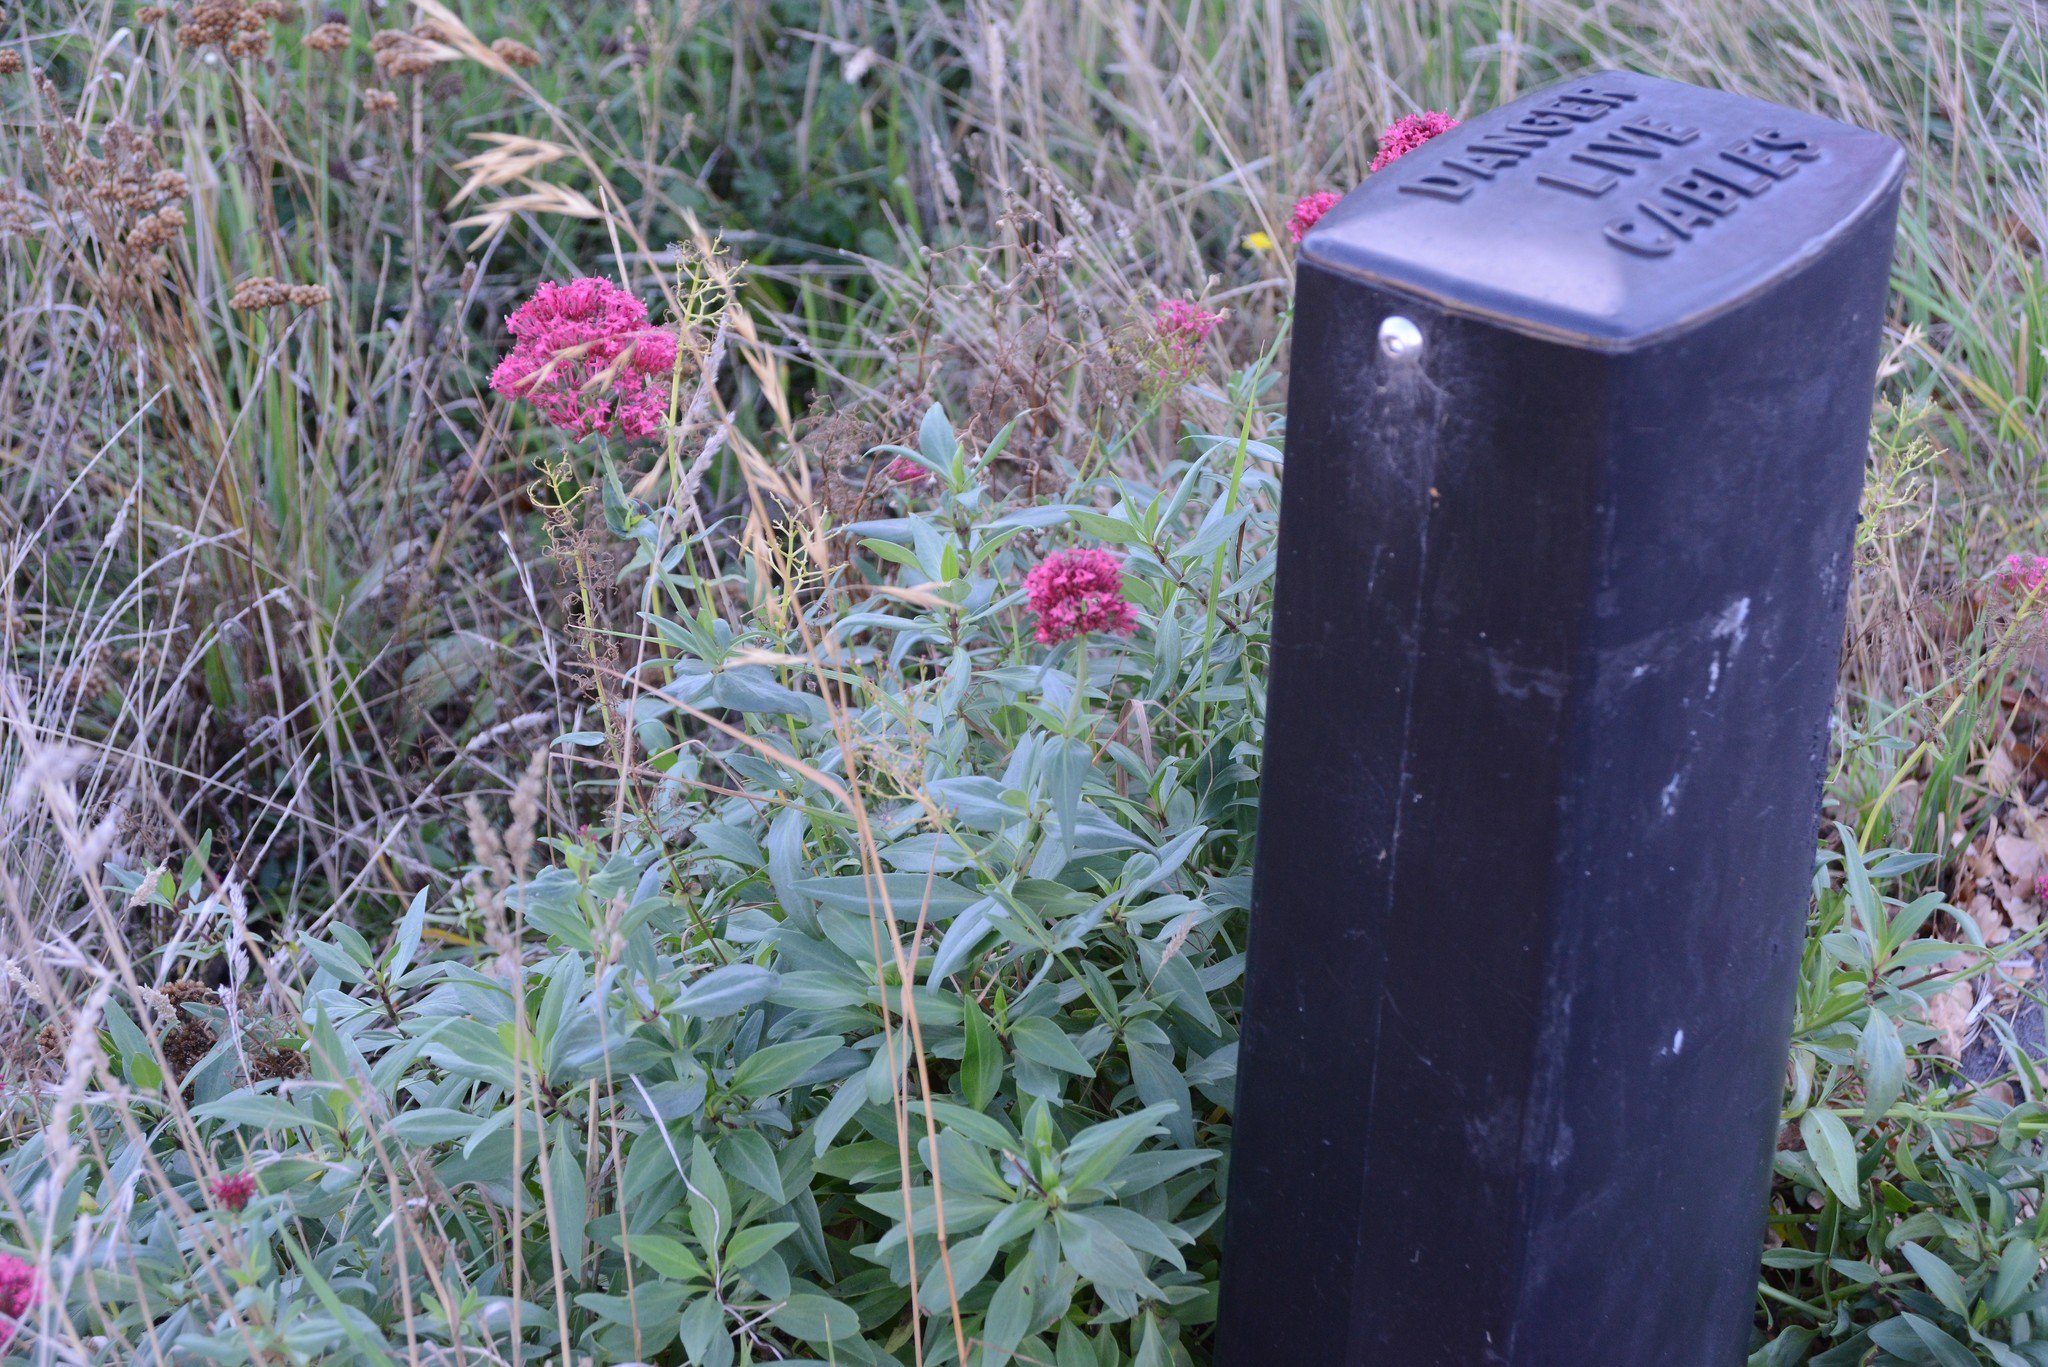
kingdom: Plantae
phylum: Tracheophyta
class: Magnoliopsida
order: Dipsacales
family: Caprifoliaceae
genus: Centranthus
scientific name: Centranthus ruber
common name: Red valerian
